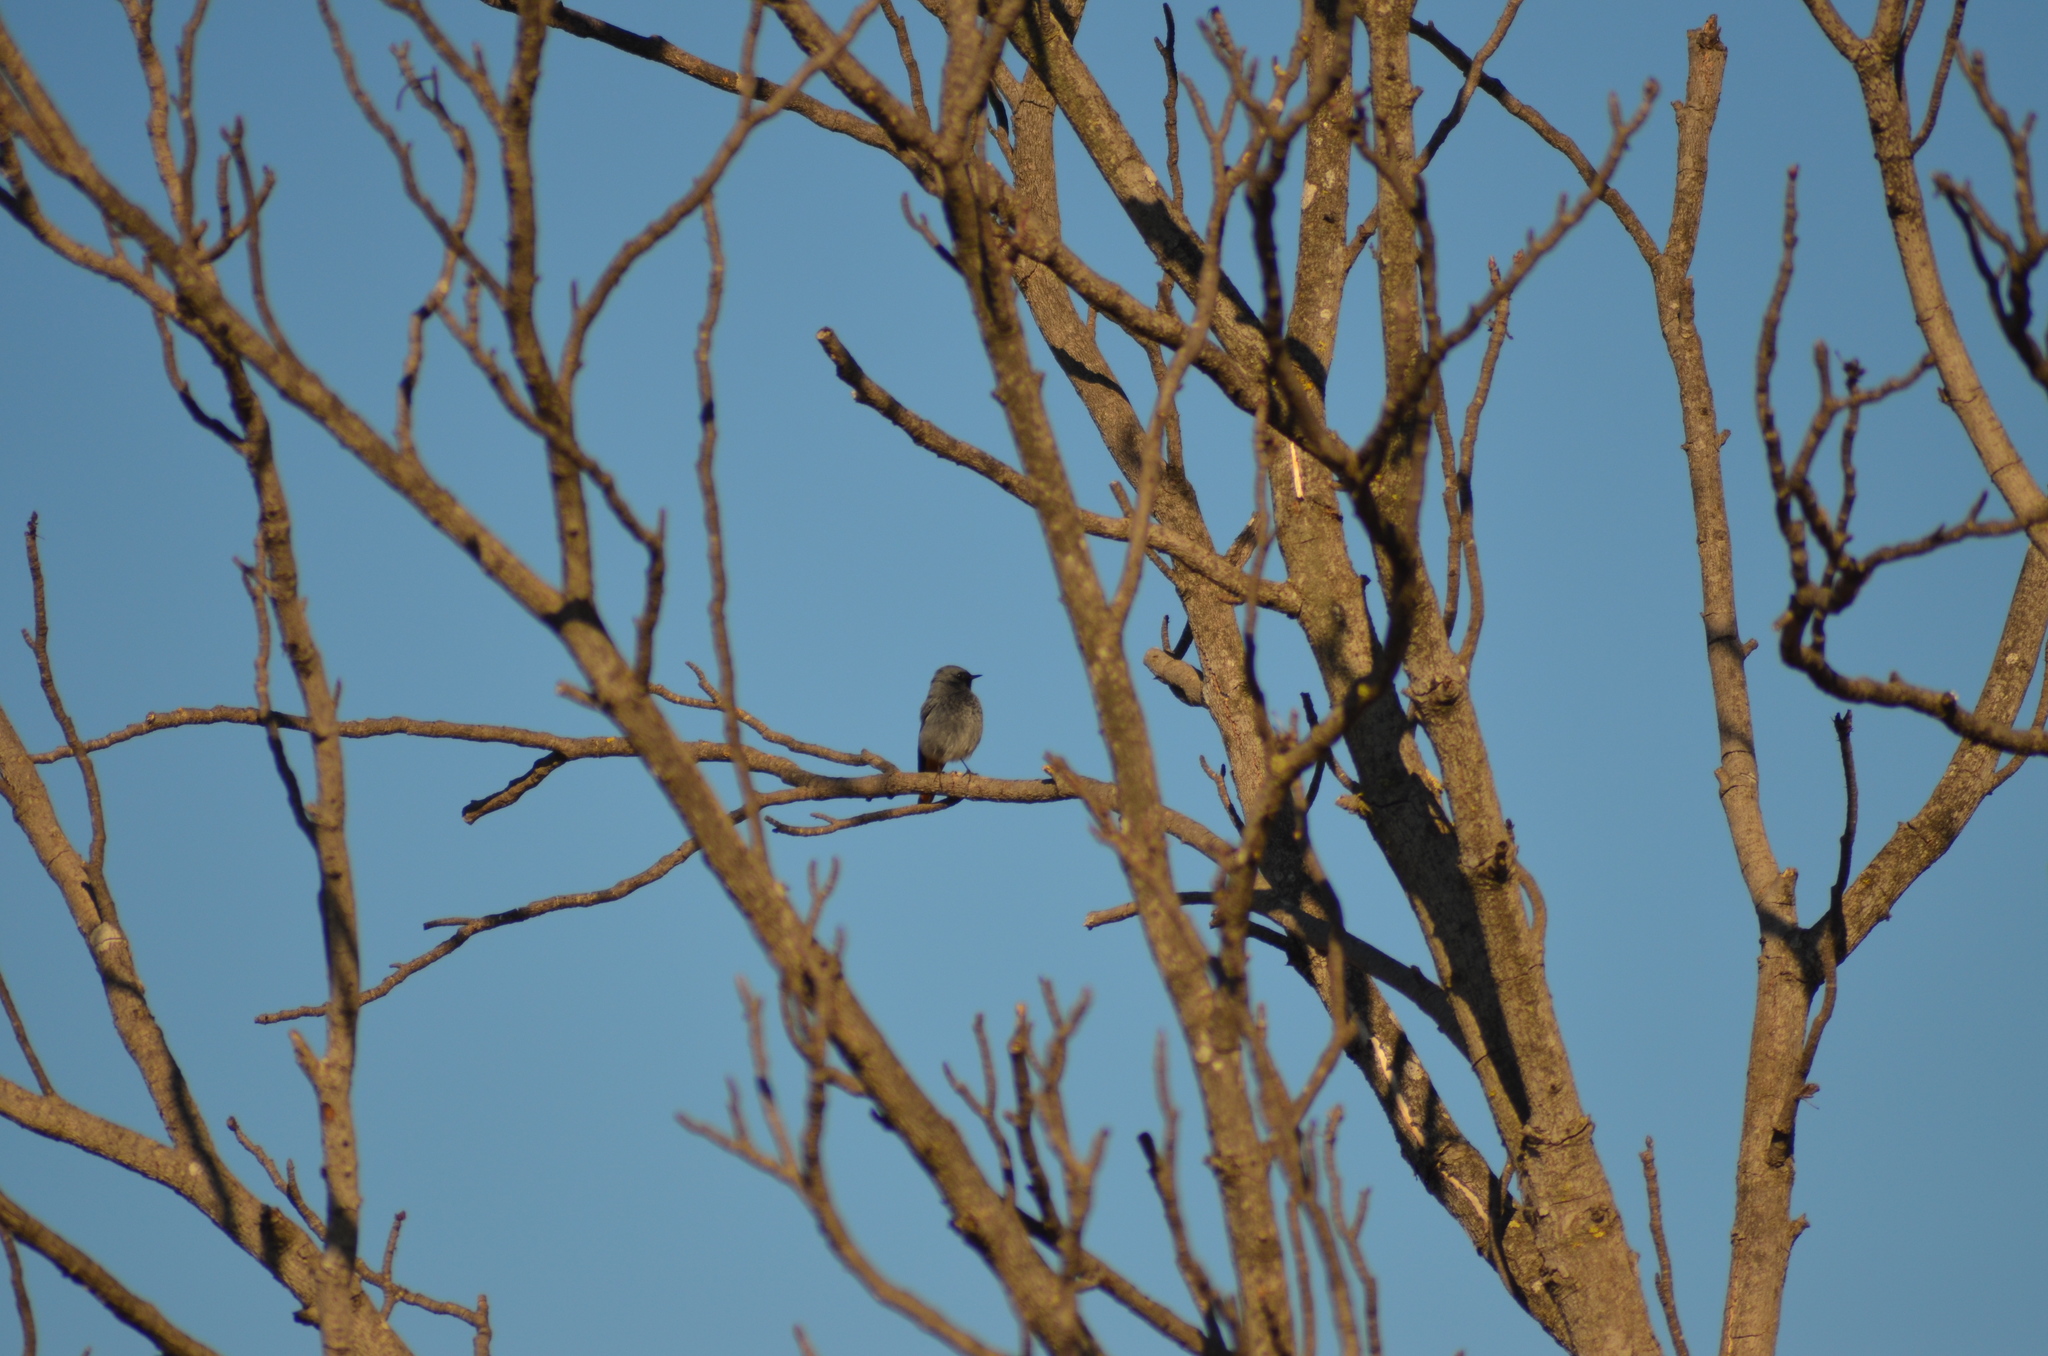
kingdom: Animalia
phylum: Chordata
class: Aves
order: Passeriformes
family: Muscicapidae
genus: Phoenicurus
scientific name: Phoenicurus ochruros
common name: Black redstart
